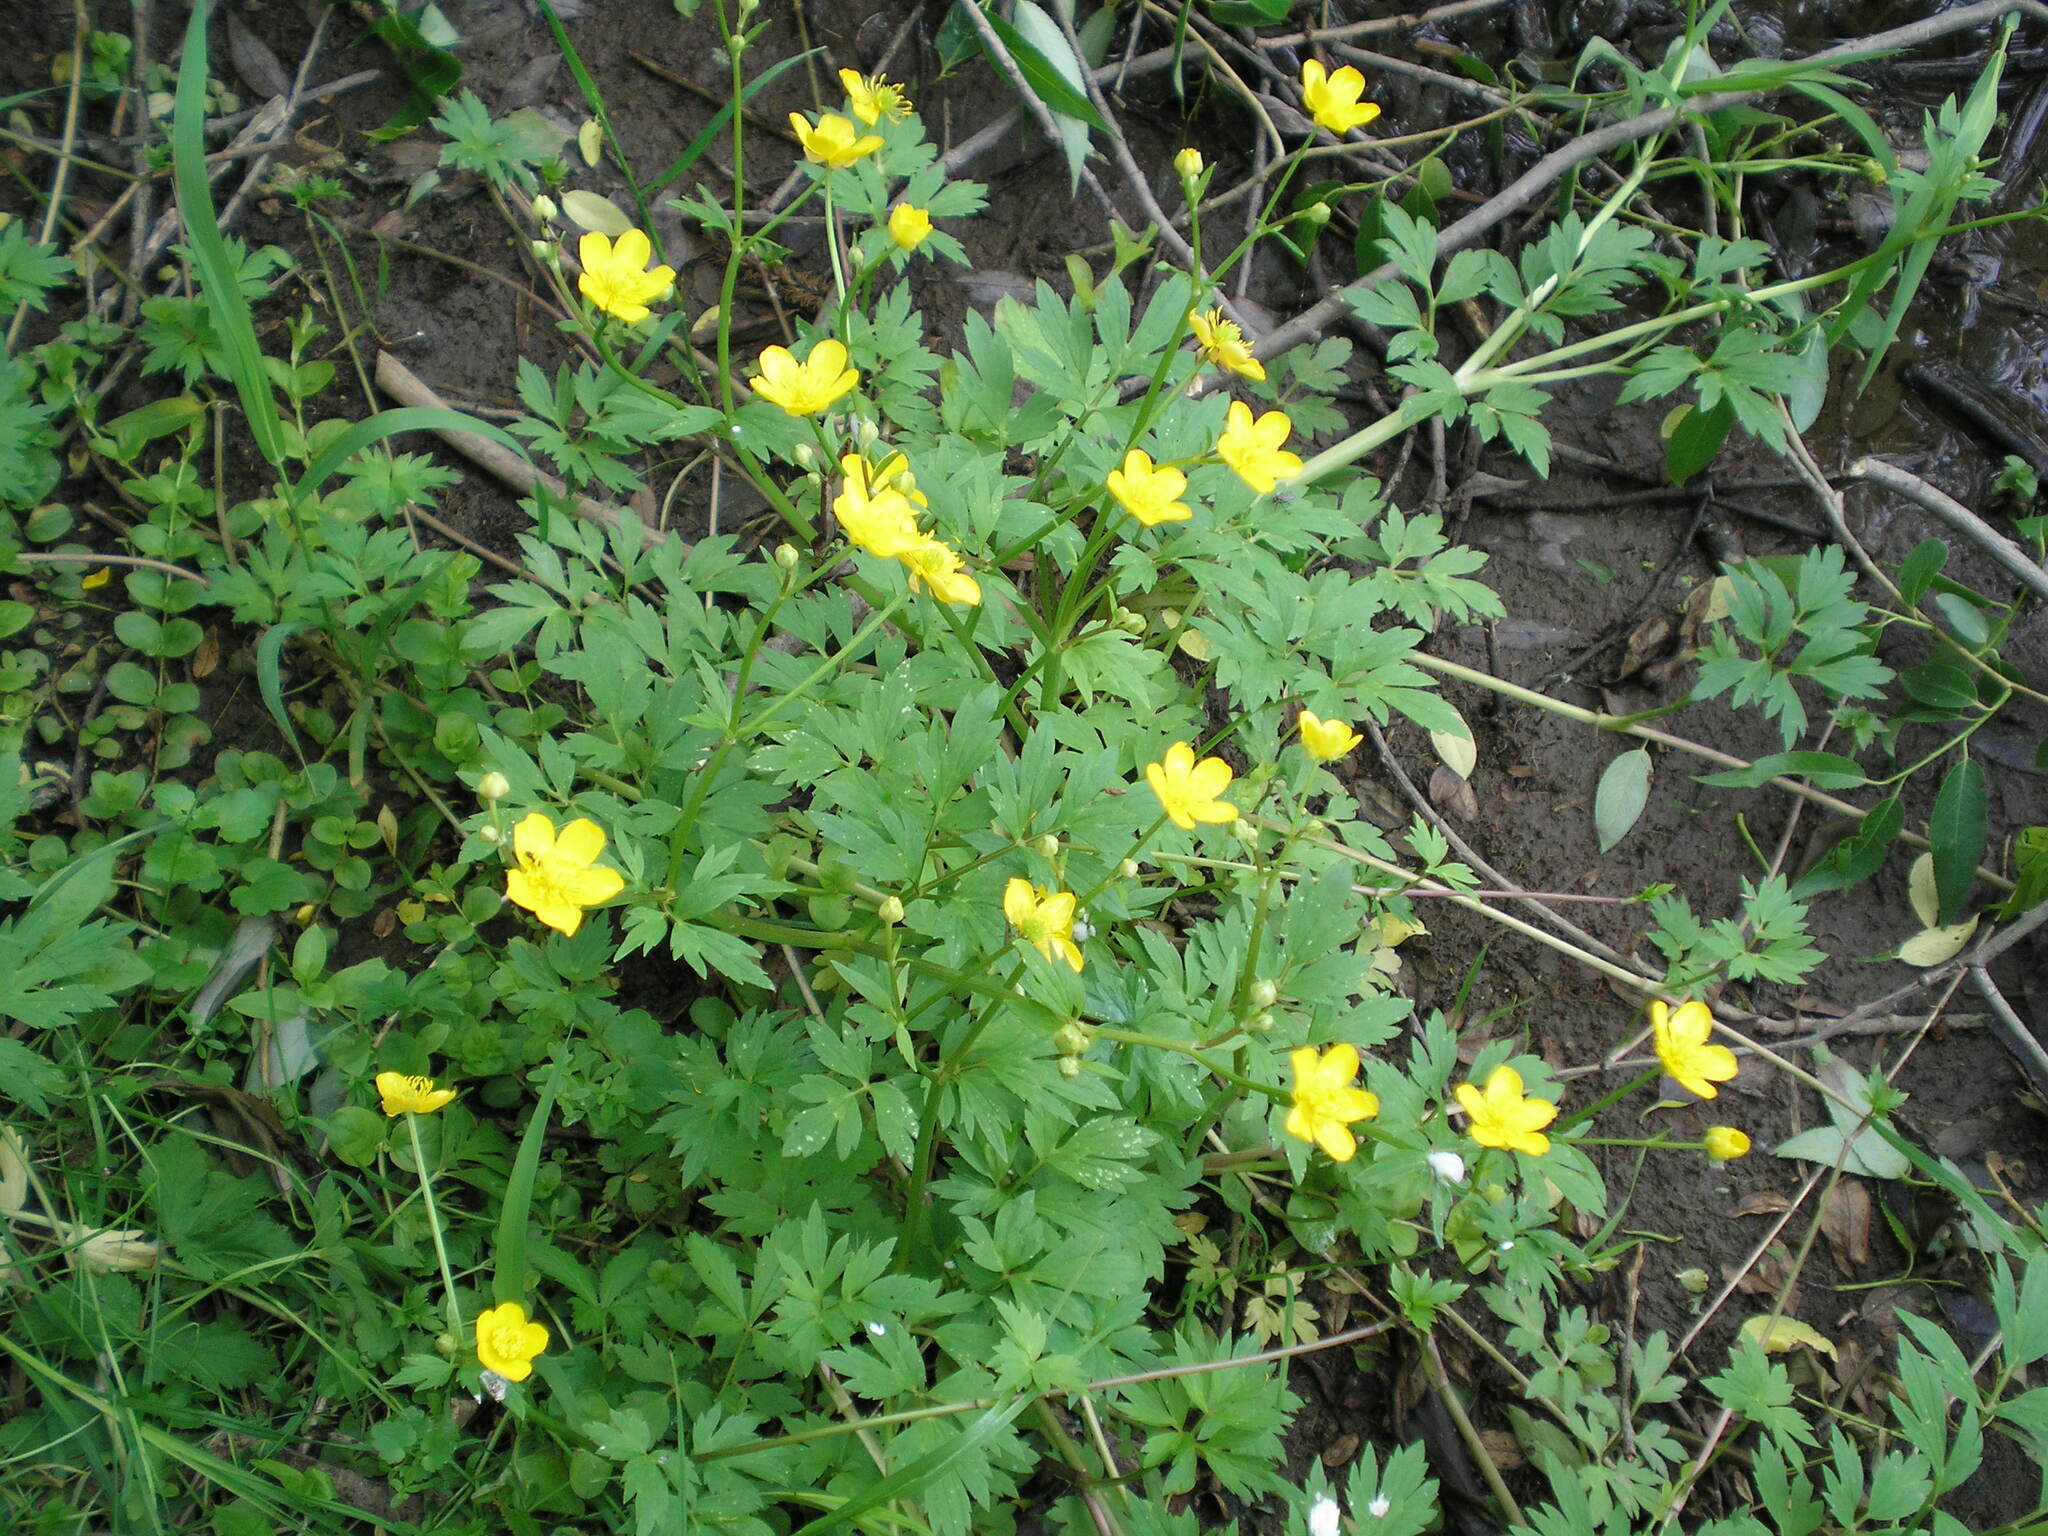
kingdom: Plantae
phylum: Tracheophyta
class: Magnoliopsida
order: Ranunculales
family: Ranunculaceae
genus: Ranunculus
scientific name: Ranunculus repens
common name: Creeping buttercup
